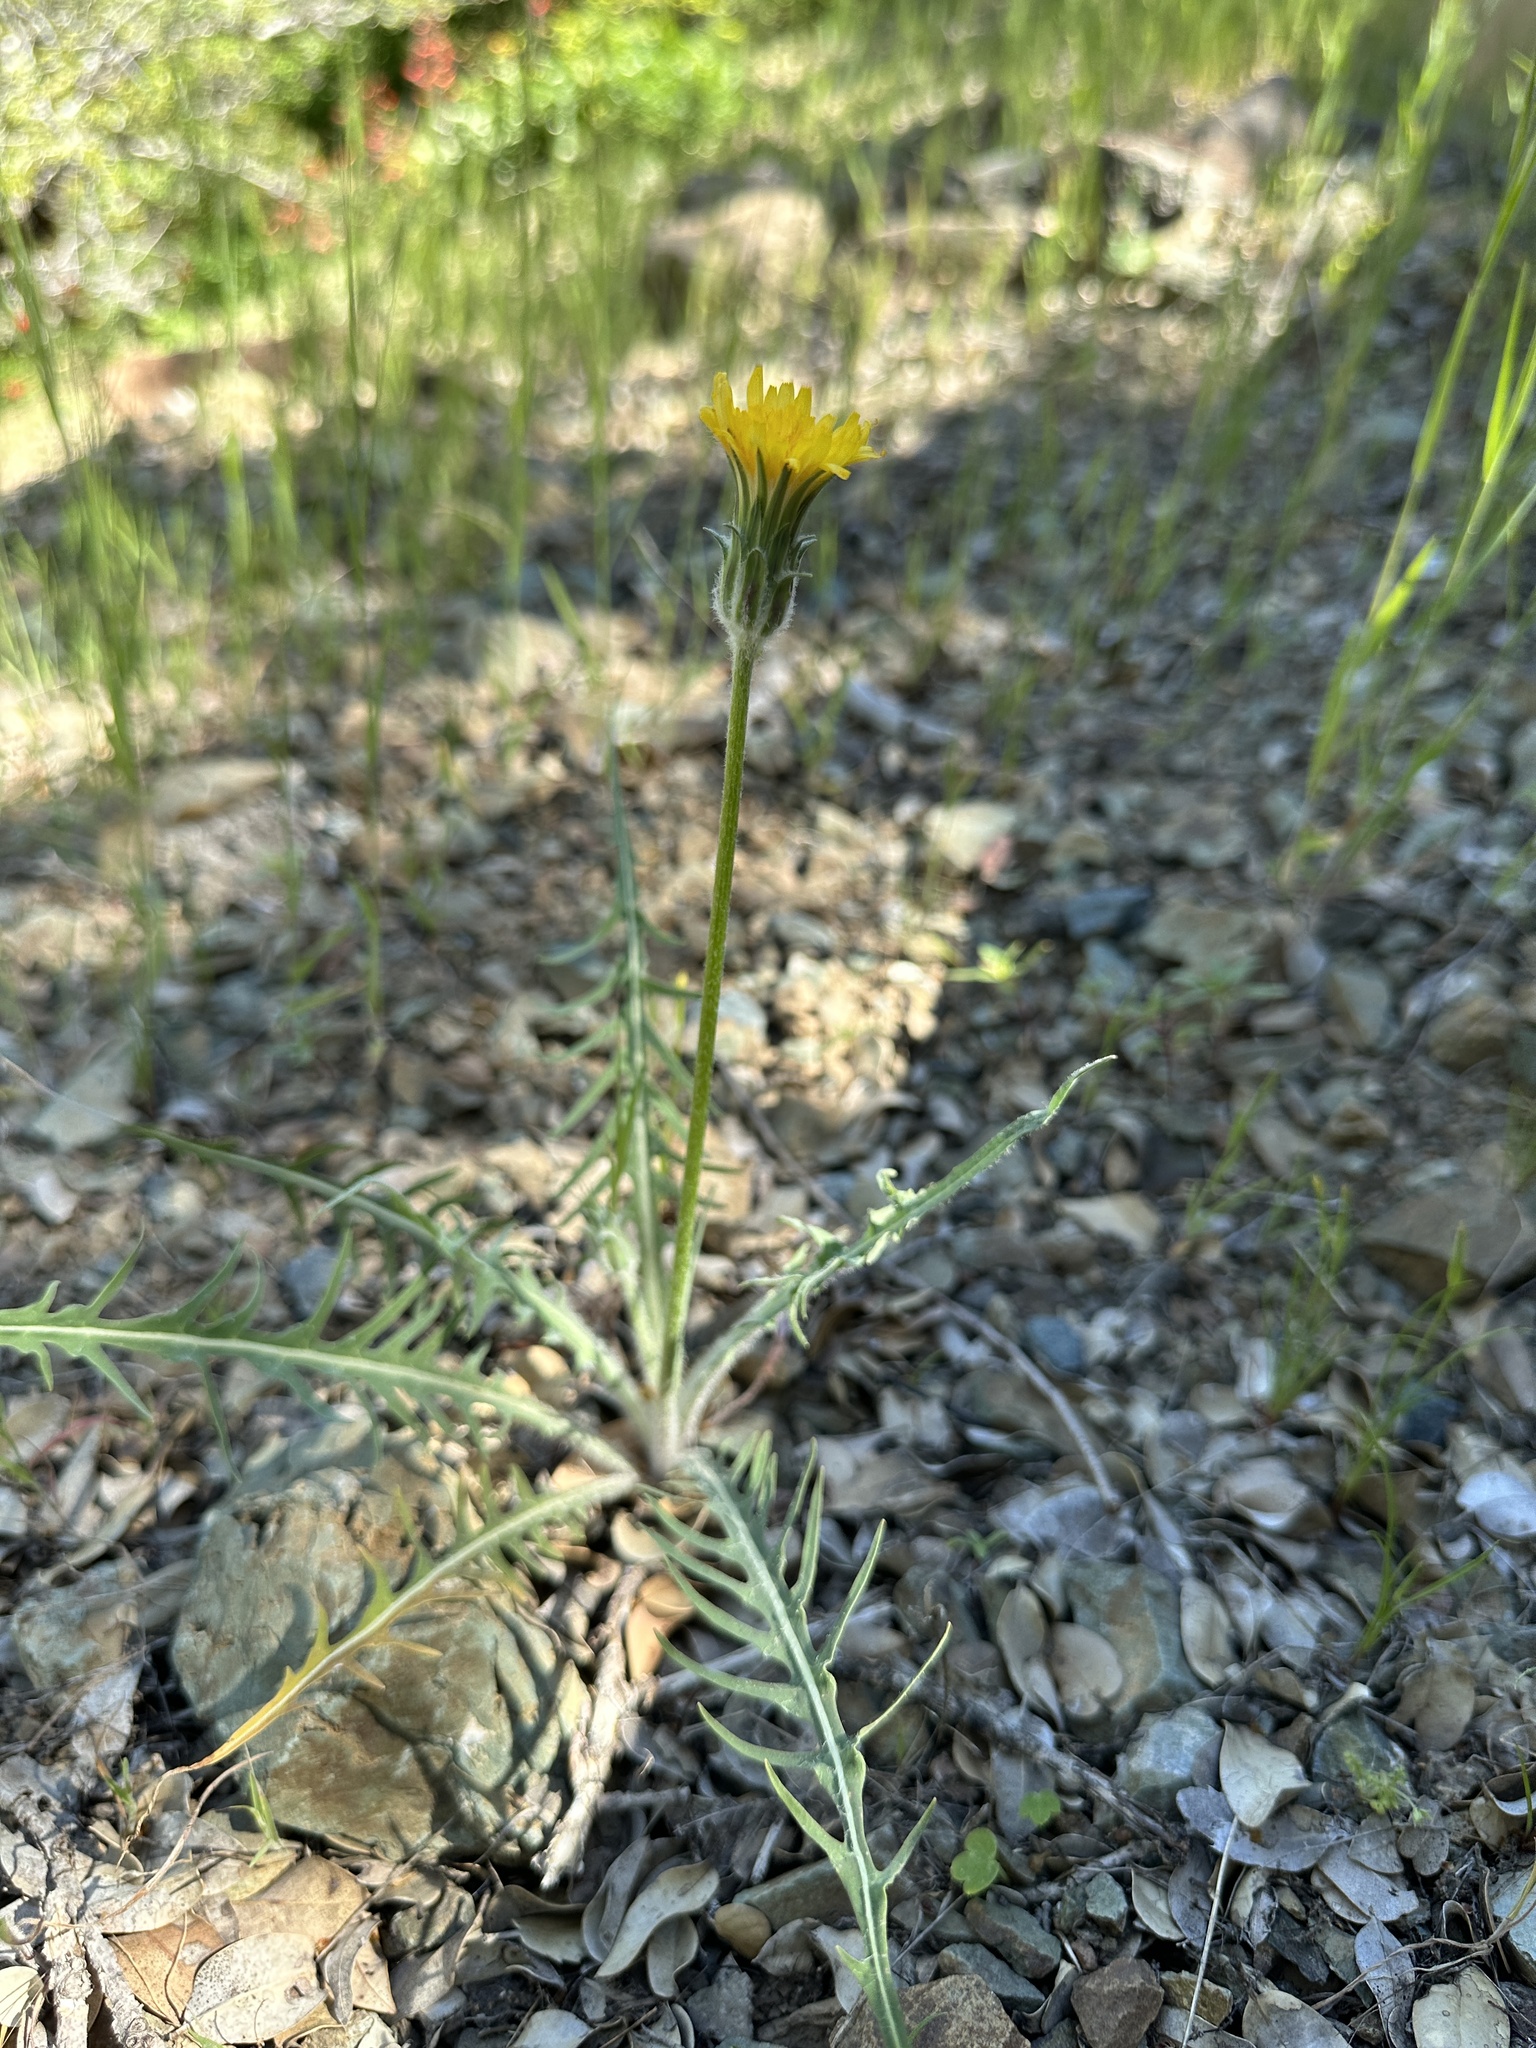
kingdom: Plantae
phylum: Tracheophyta
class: Magnoliopsida
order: Asterales
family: Asteraceae
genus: Agoseris
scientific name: Agoseris retrorsa
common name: Spearleaf agoseris
